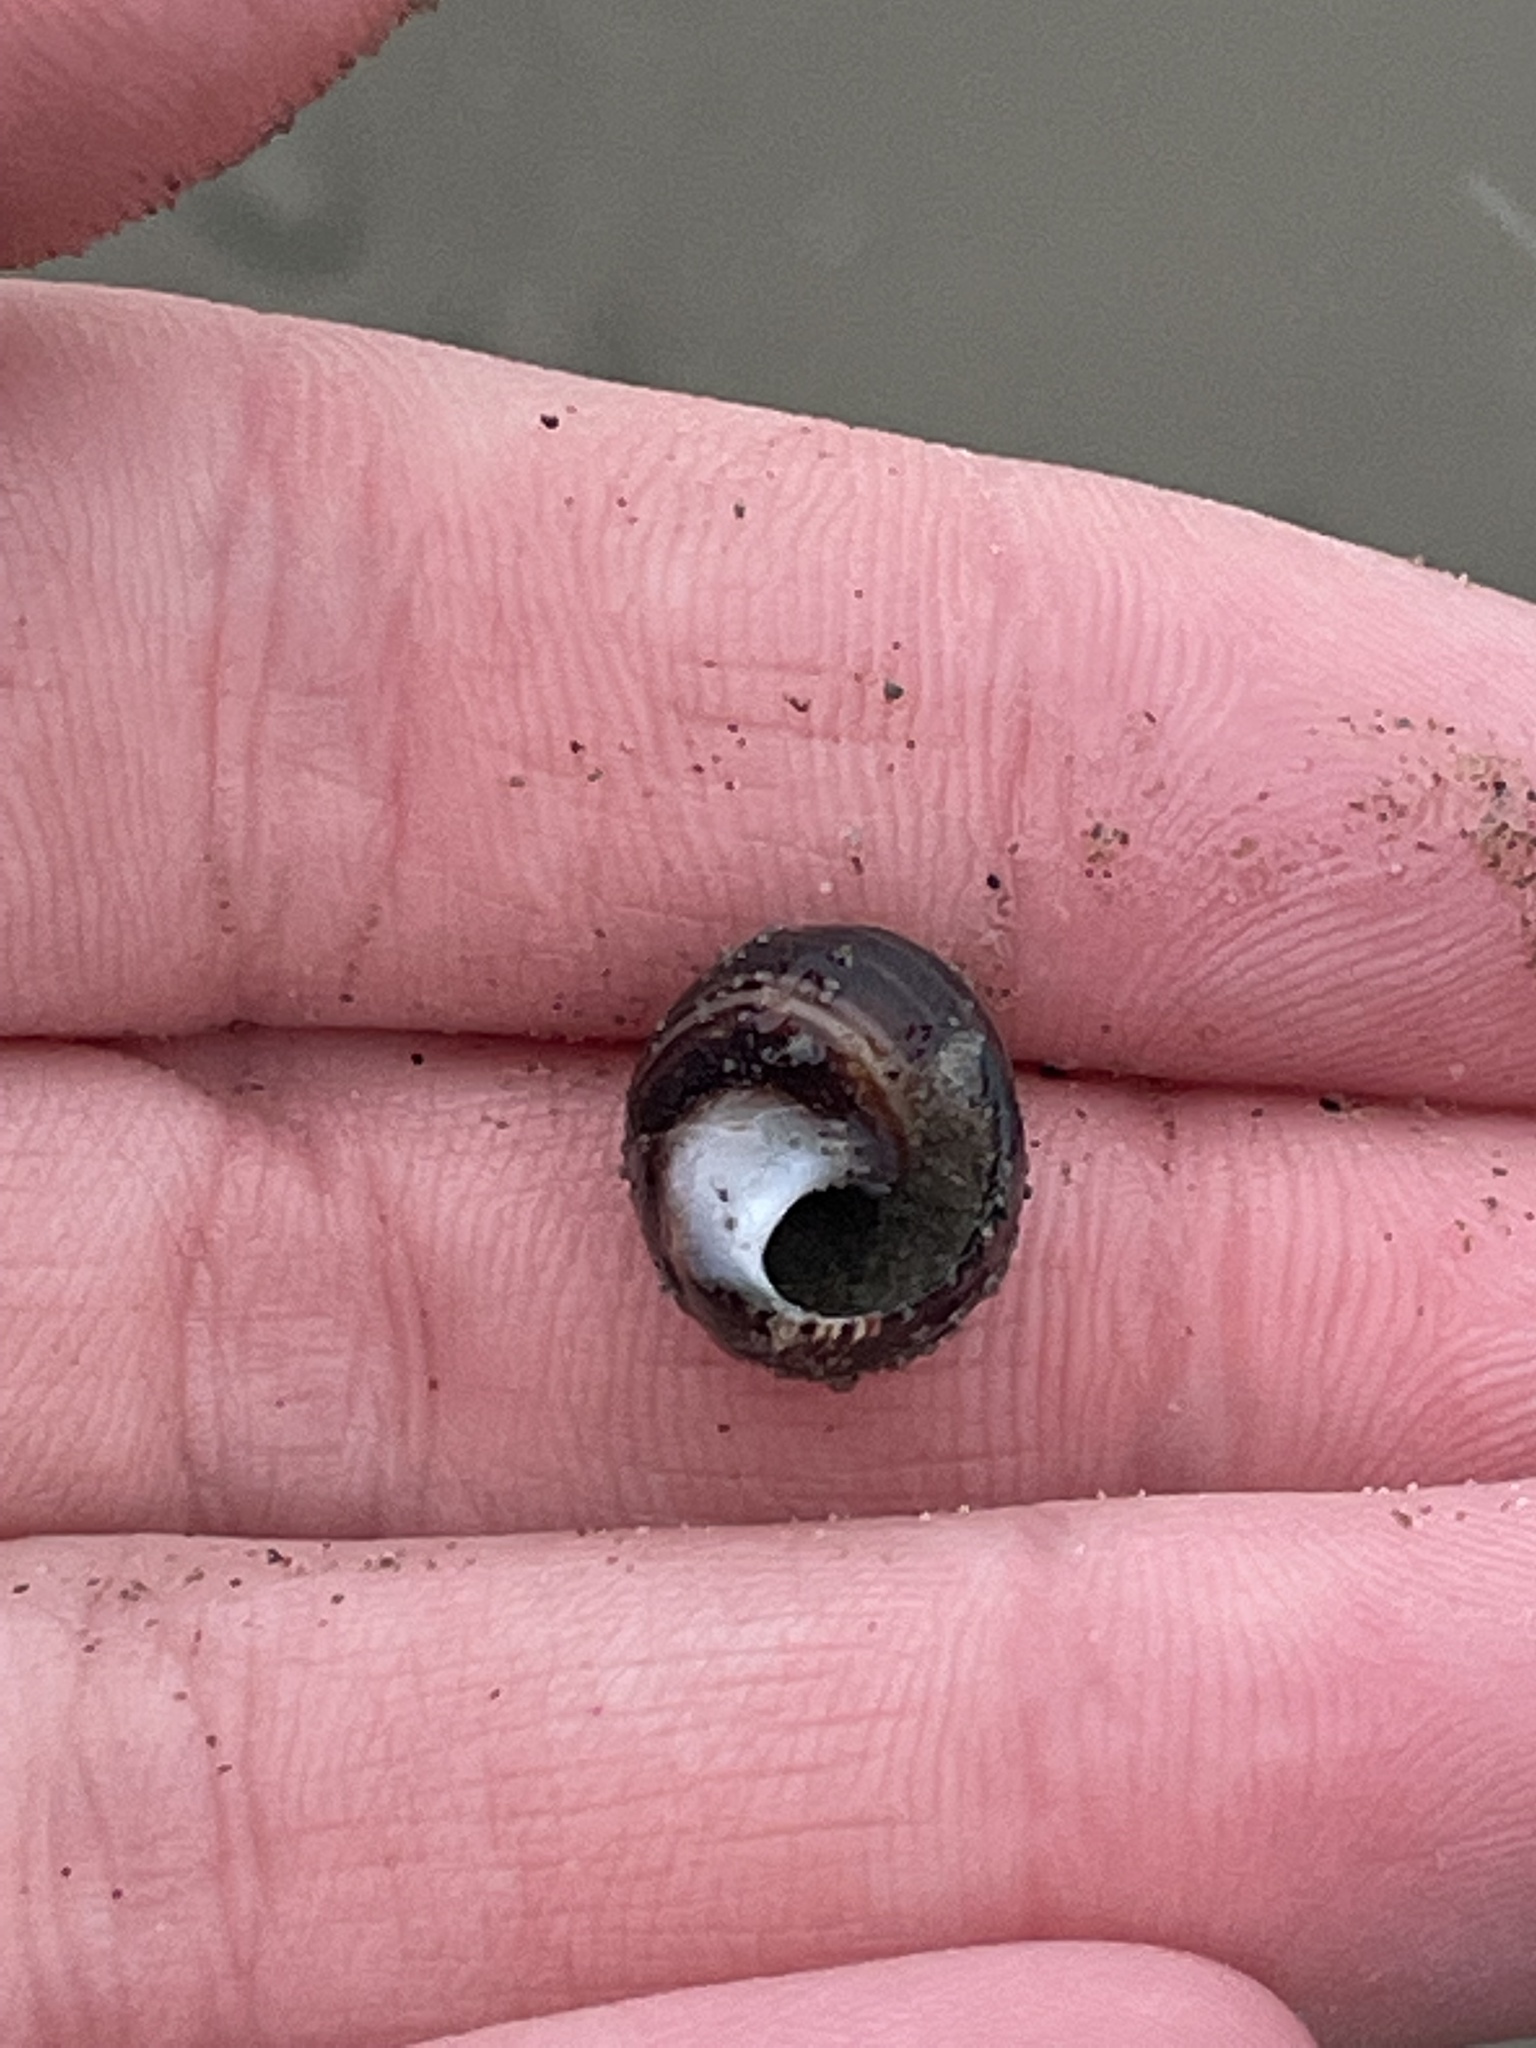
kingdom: Animalia
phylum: Mollusca
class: Gastropoda
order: Littorinimorpha
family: Littorinidae
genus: Littorina
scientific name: Littorina littorea
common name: Common periwinkle
